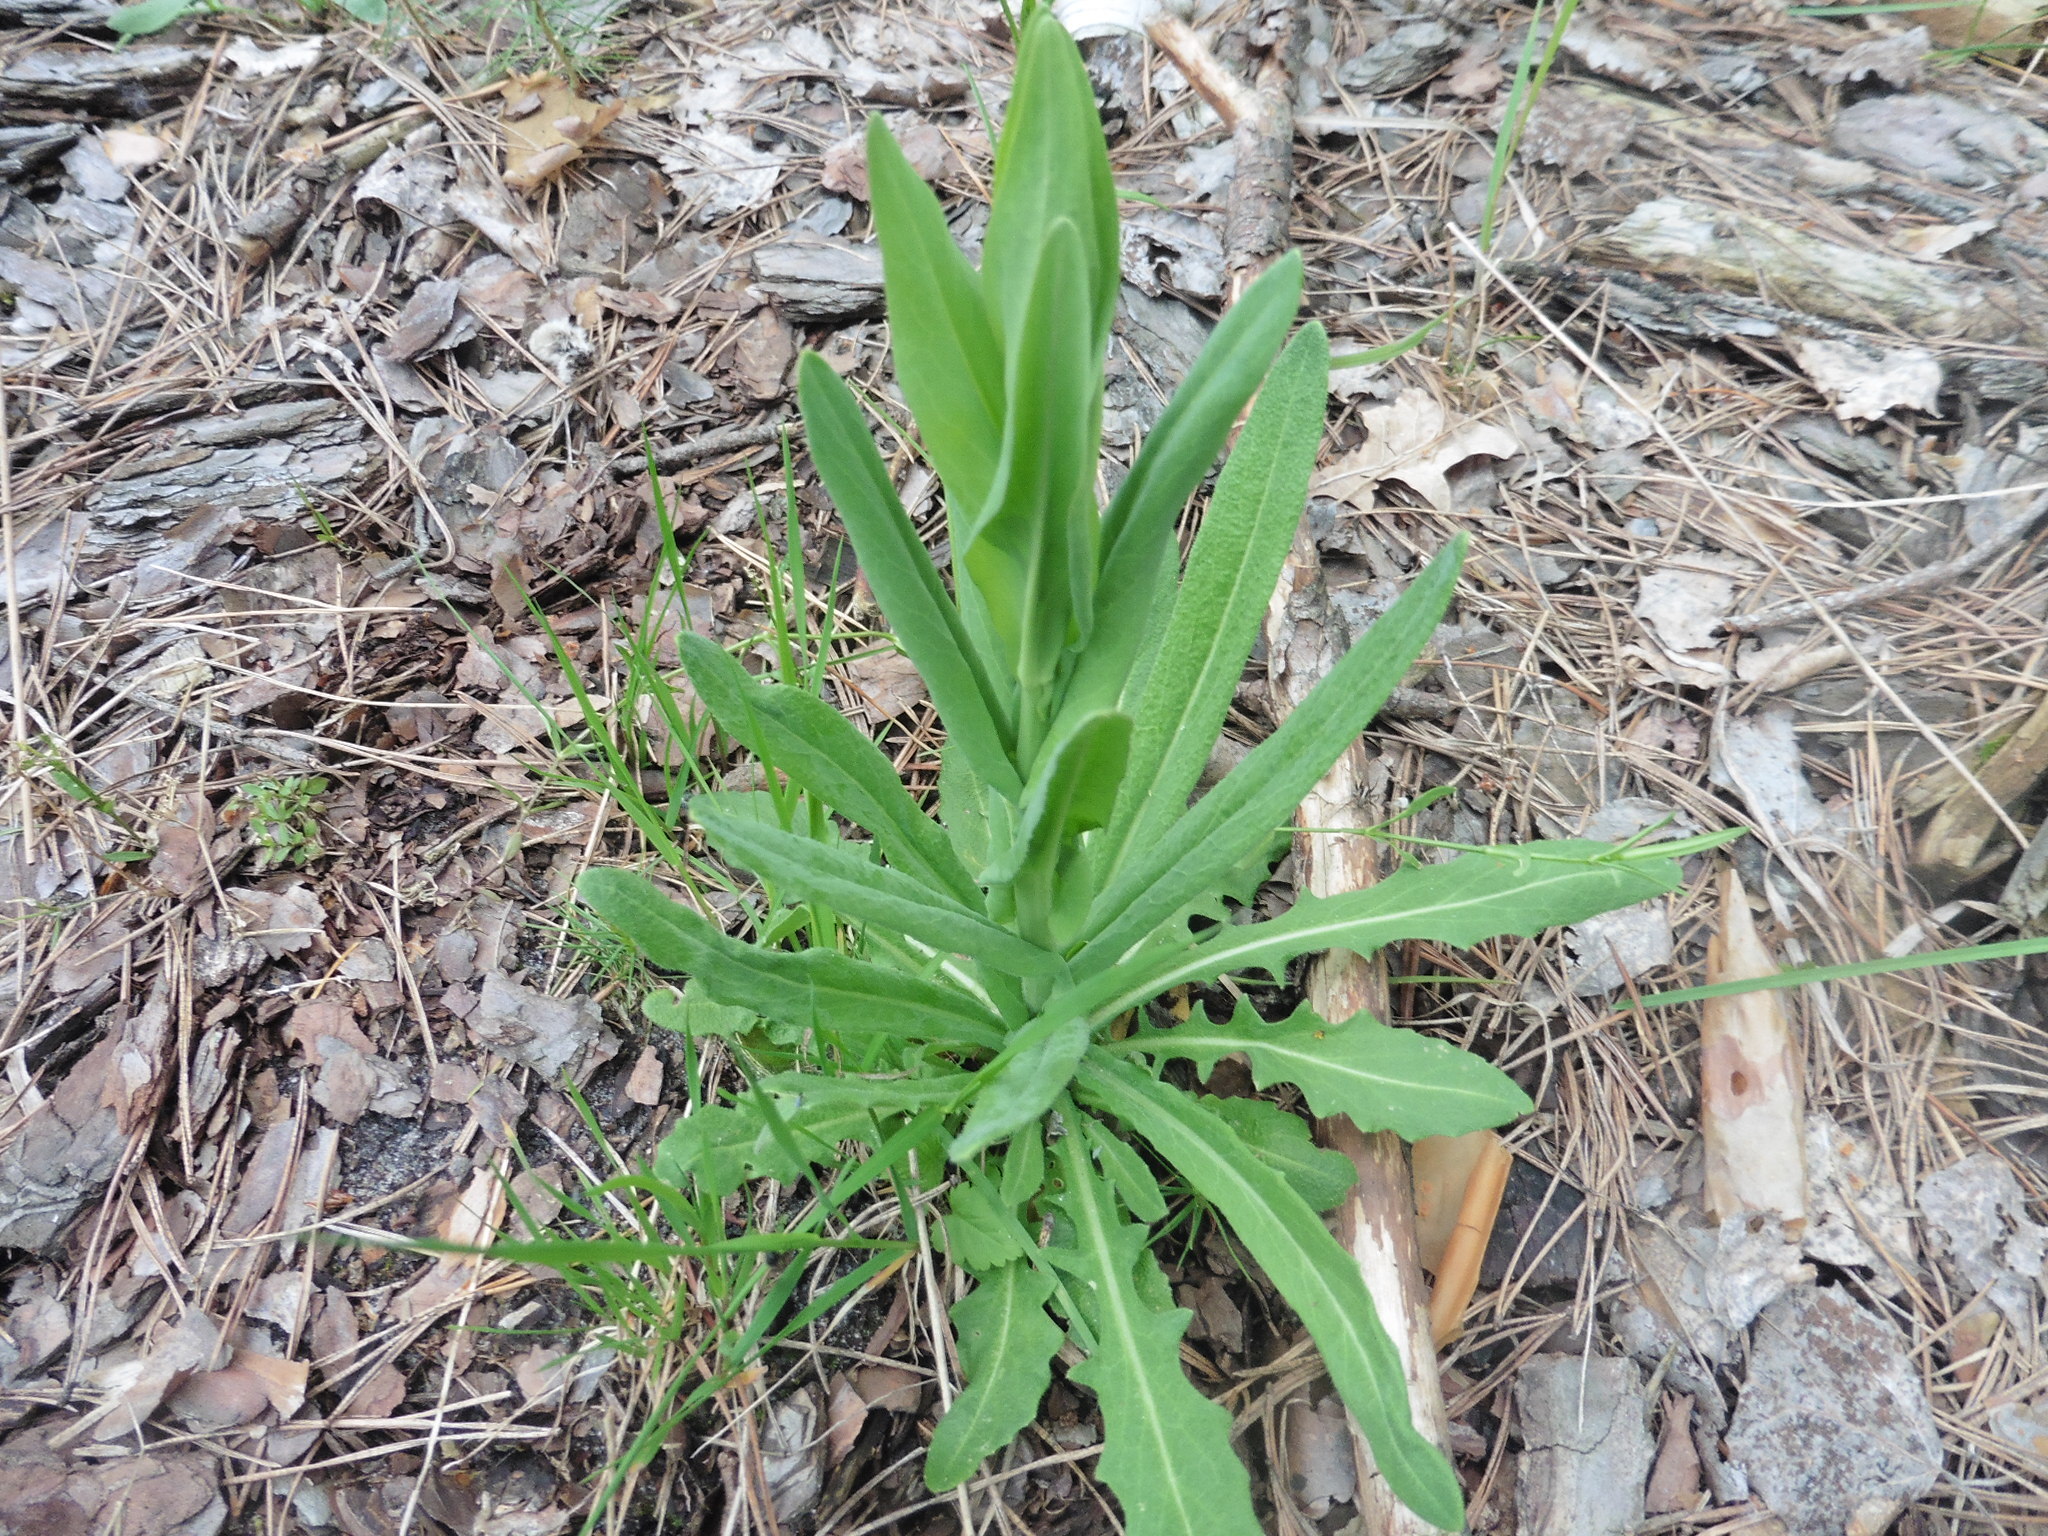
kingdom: Plantae
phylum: Tracheophyta
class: Magnoliopsida
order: Brassicales
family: Brassicaceae
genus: Turritis
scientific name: Turritis glabra
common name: Tower rockcress
